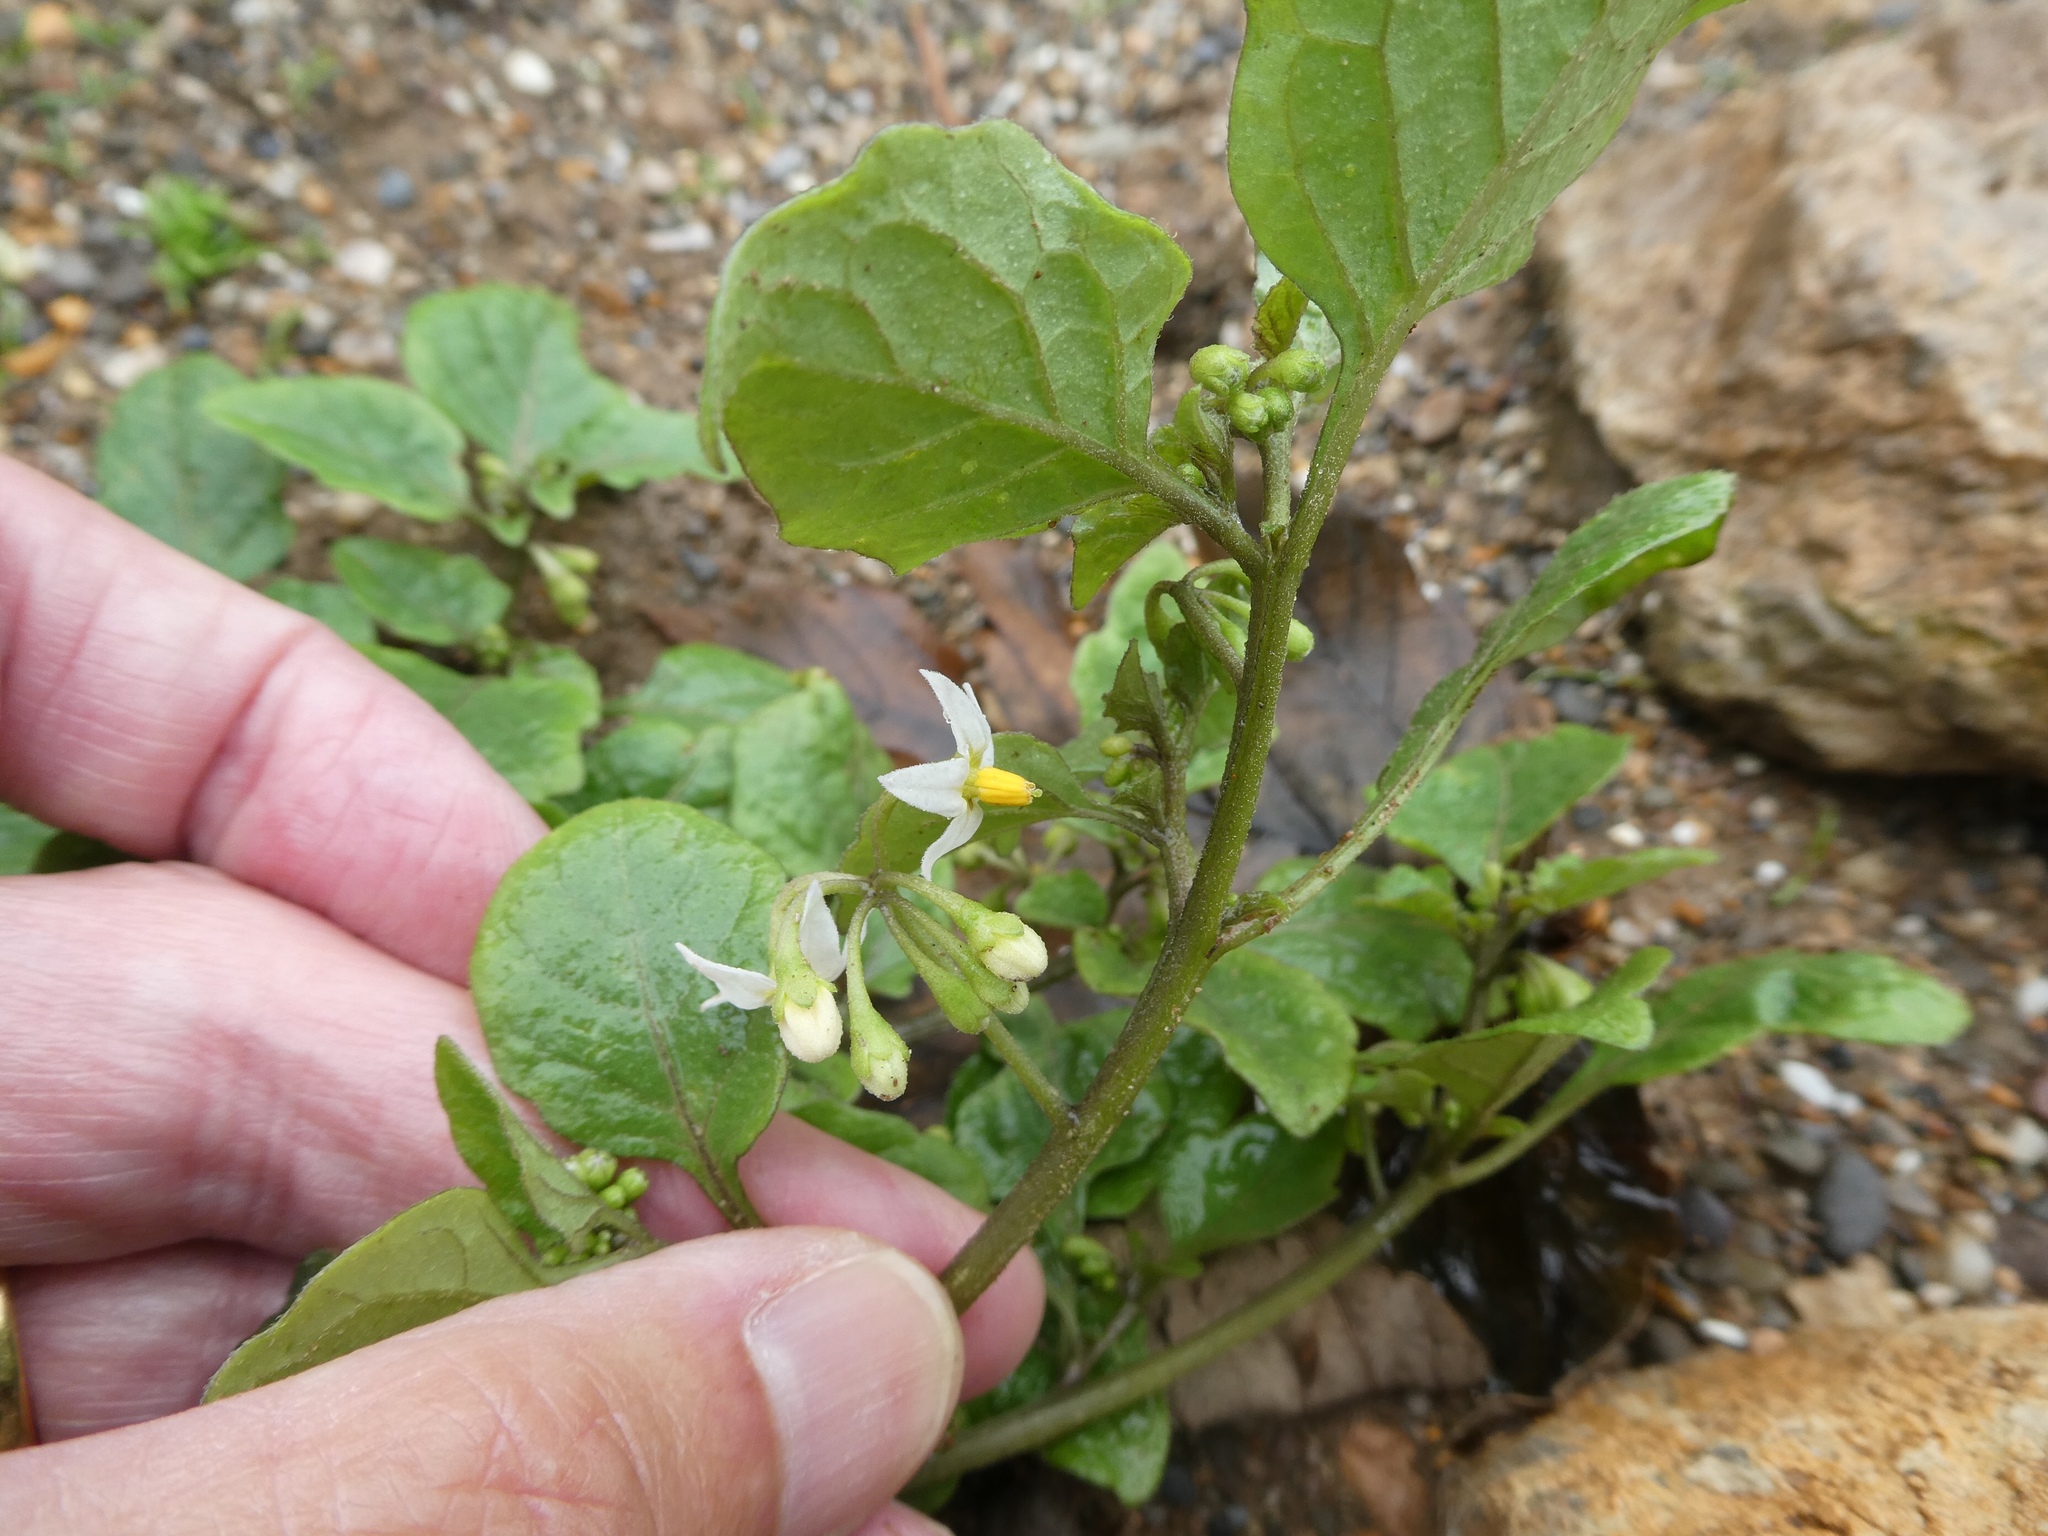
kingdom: Plantae
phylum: Tracheophyta
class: Magnoliopsida
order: Solanales
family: Solanaceae
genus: Solanum
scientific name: Solanum nigrum
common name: Black nightshade
